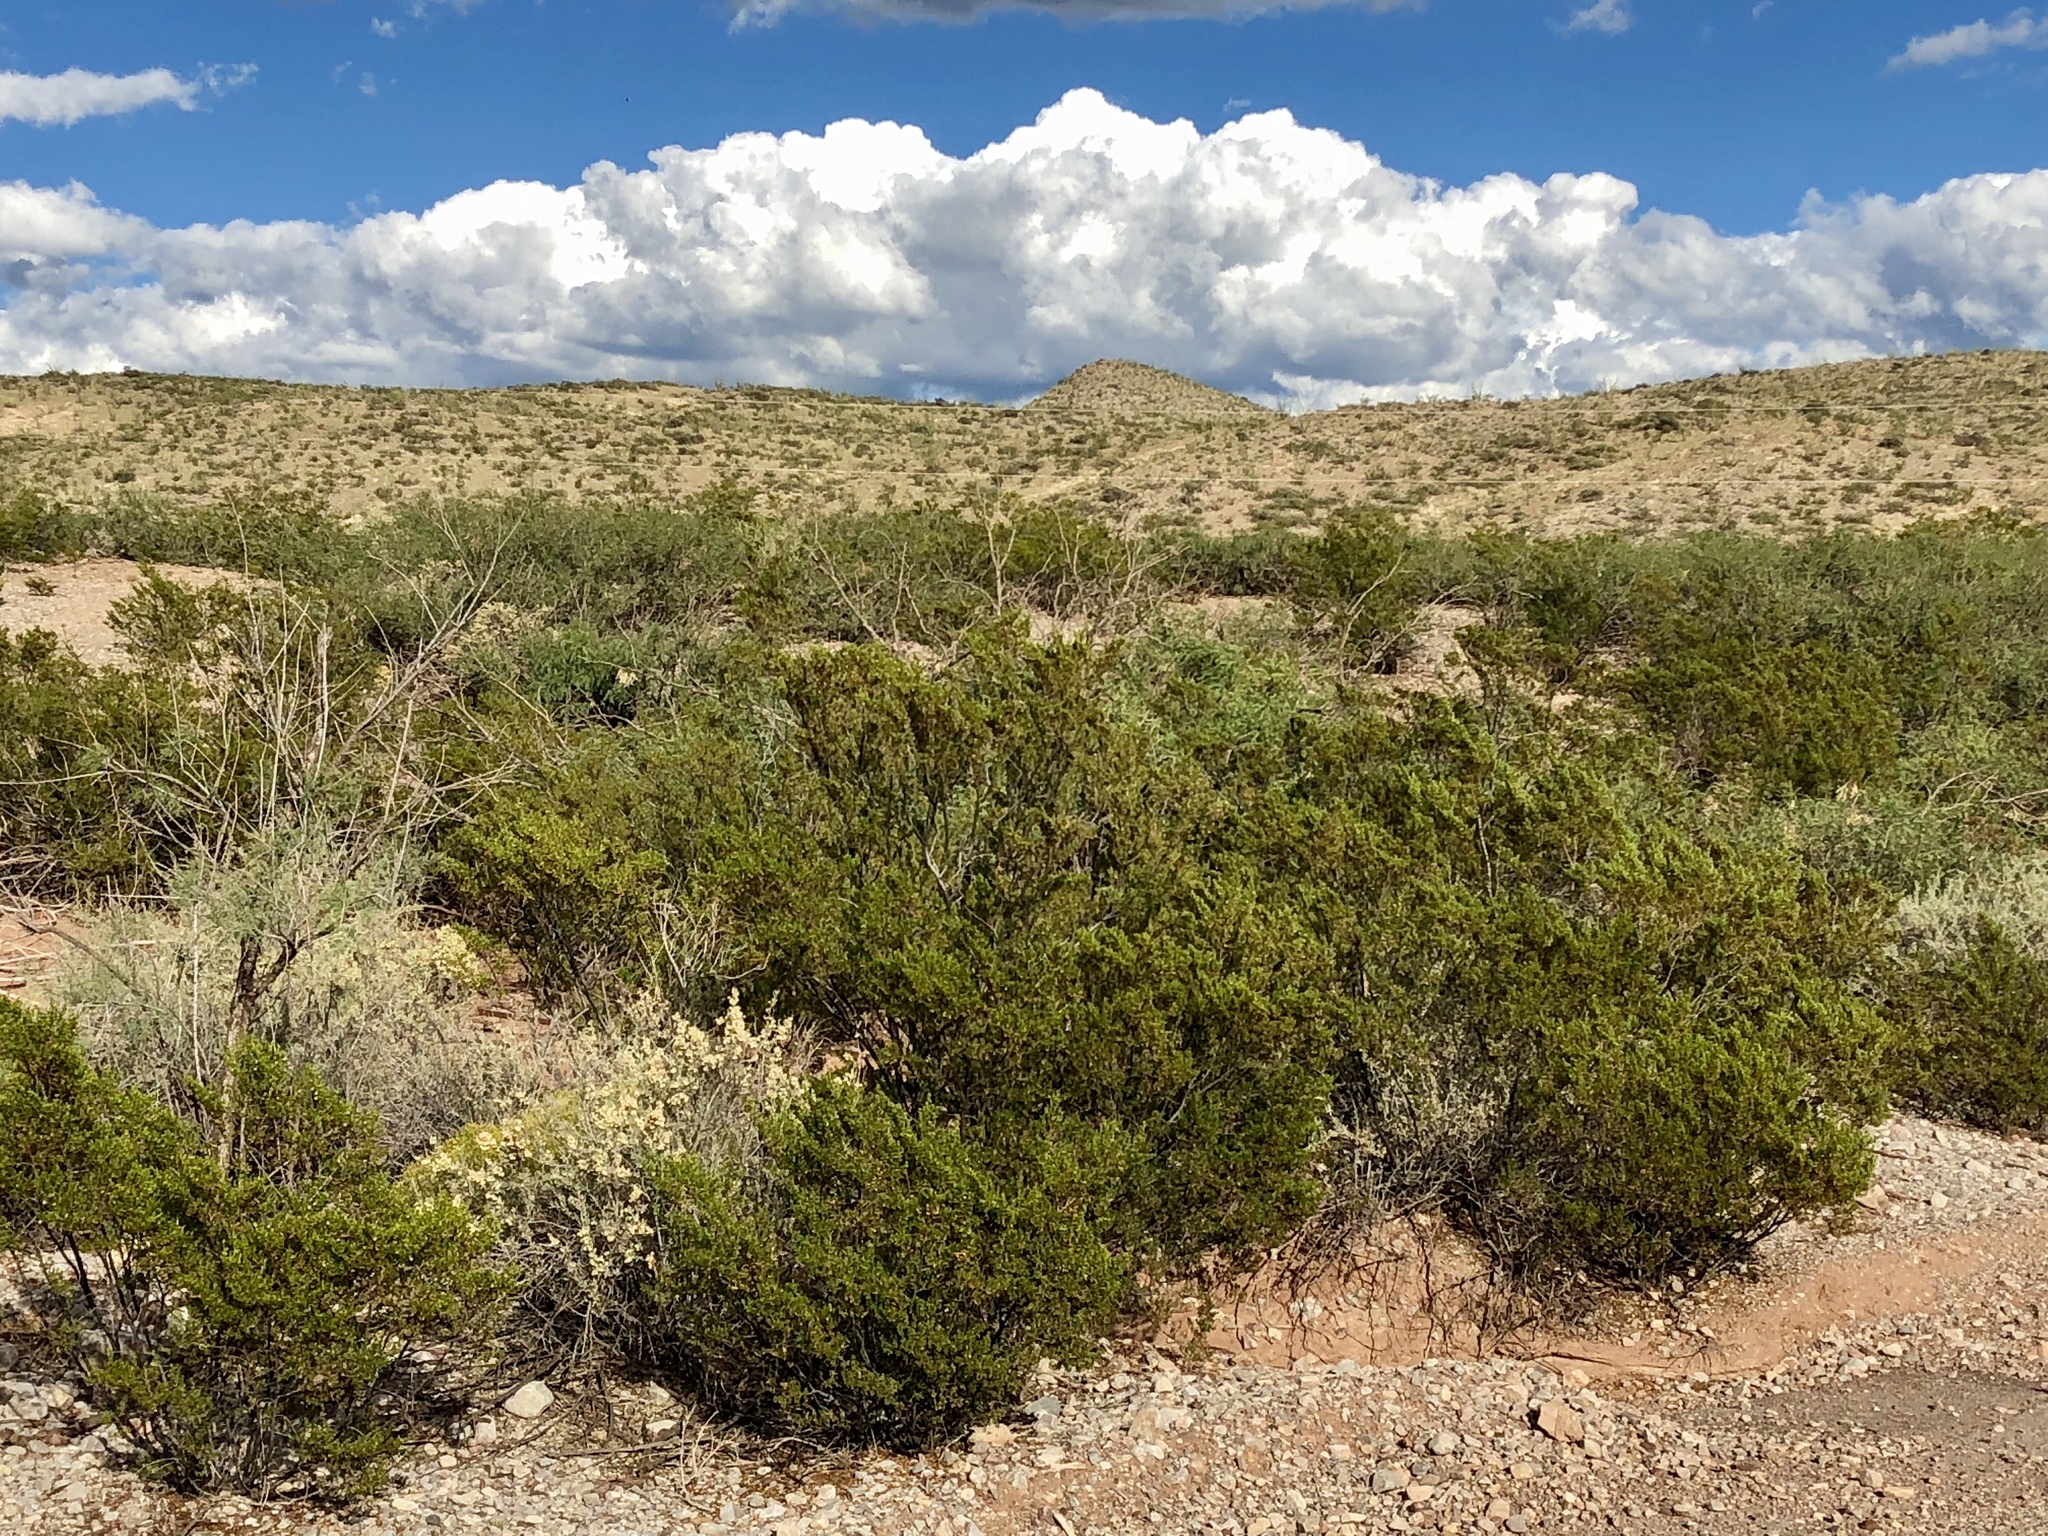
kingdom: Plantae
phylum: Tracheophyta
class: Magnoliopsida
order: Zygophyllales
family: Zygophyllaceae
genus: Larrea
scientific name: Larrea tridentata
